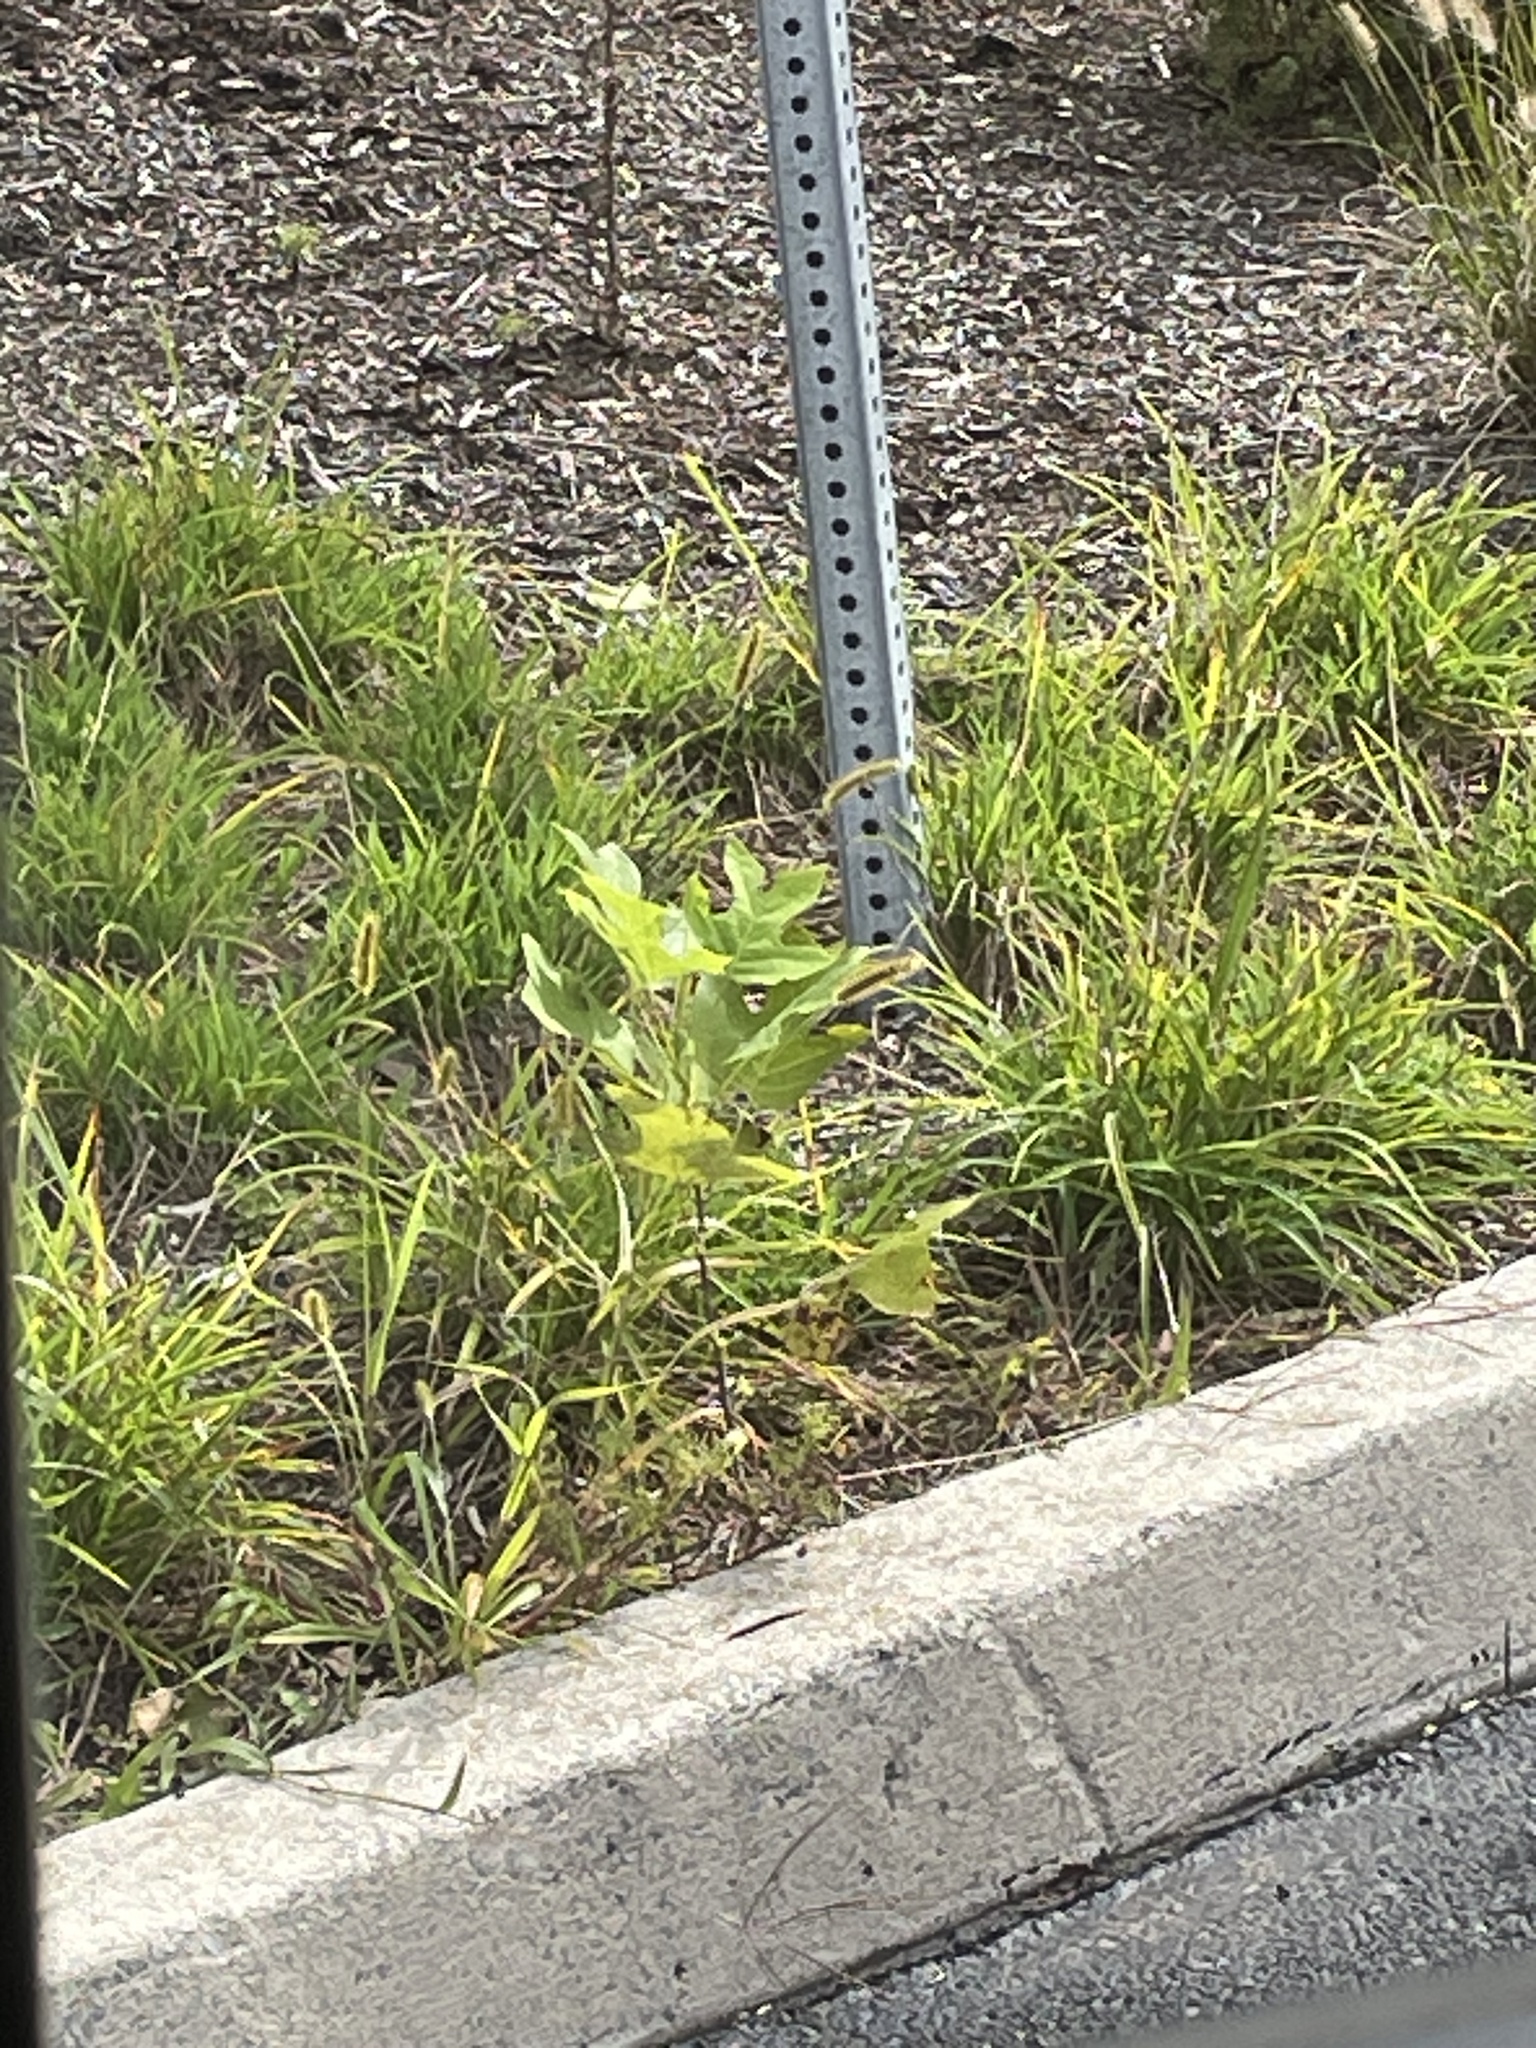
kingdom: Plantae
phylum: Tracheophyta
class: Magnoliopsida
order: Magnoliales
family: Magnoliaceae
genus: Liriodendron
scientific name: Liriodendron tulipifera
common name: Tulip tree
